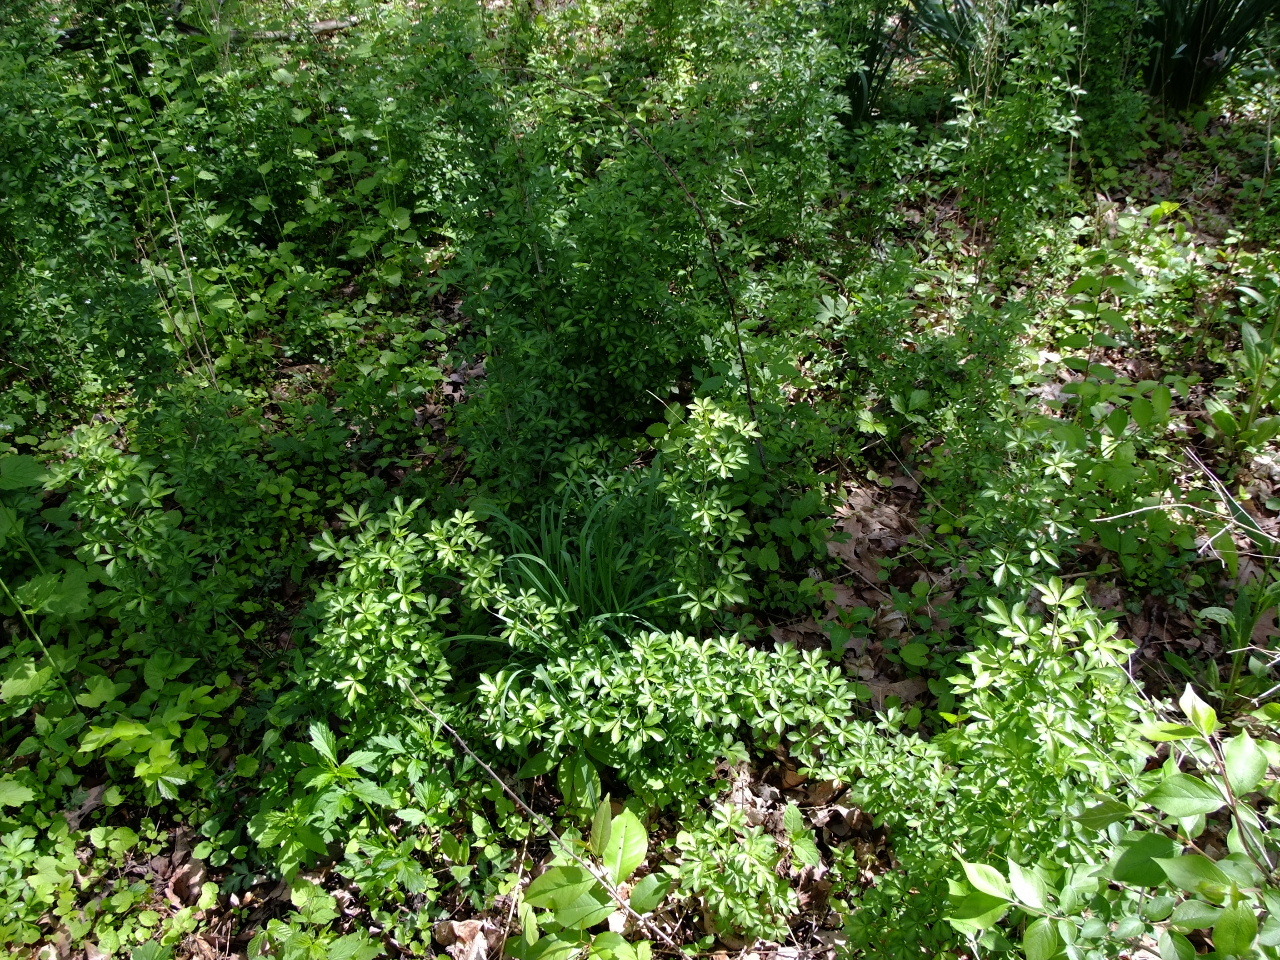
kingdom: Plantae
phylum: Tracheophyta
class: Magnoliopsida
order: Apiales
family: Araliaceae
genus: Eleutherococcus
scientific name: Eleutherococcus sieboldianus
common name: Ginseng
